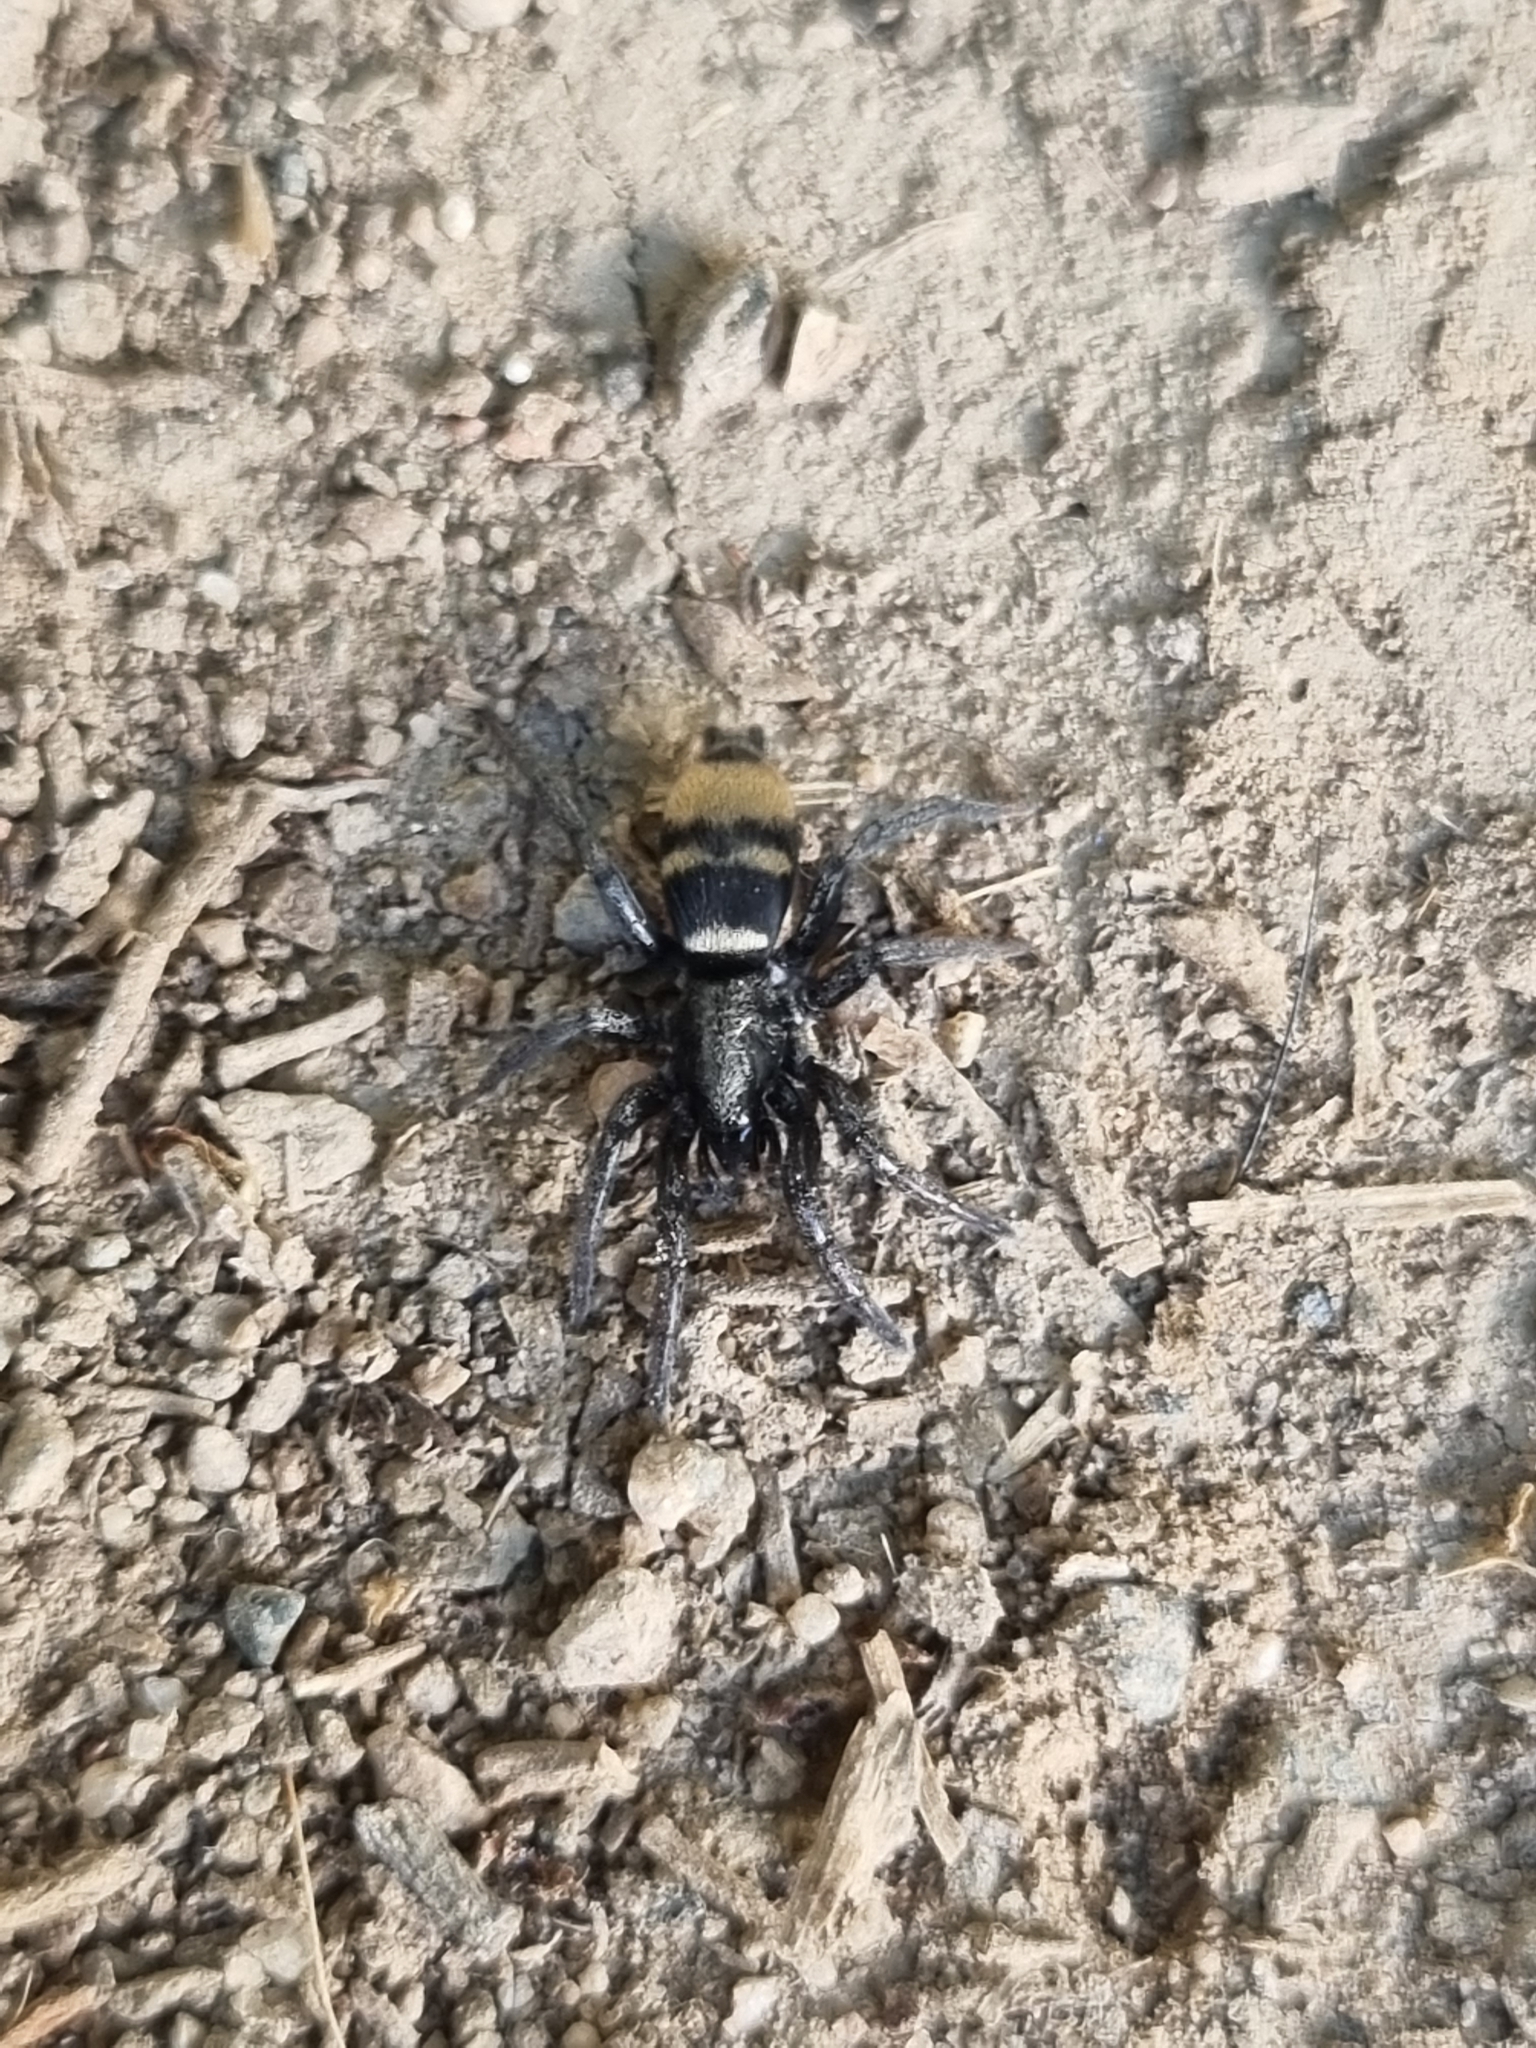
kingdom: Animalia
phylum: Arthropoda
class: Arachnida
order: Araneae
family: Gnaphosidae
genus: Latonigena
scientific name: Latonigena auricomis
